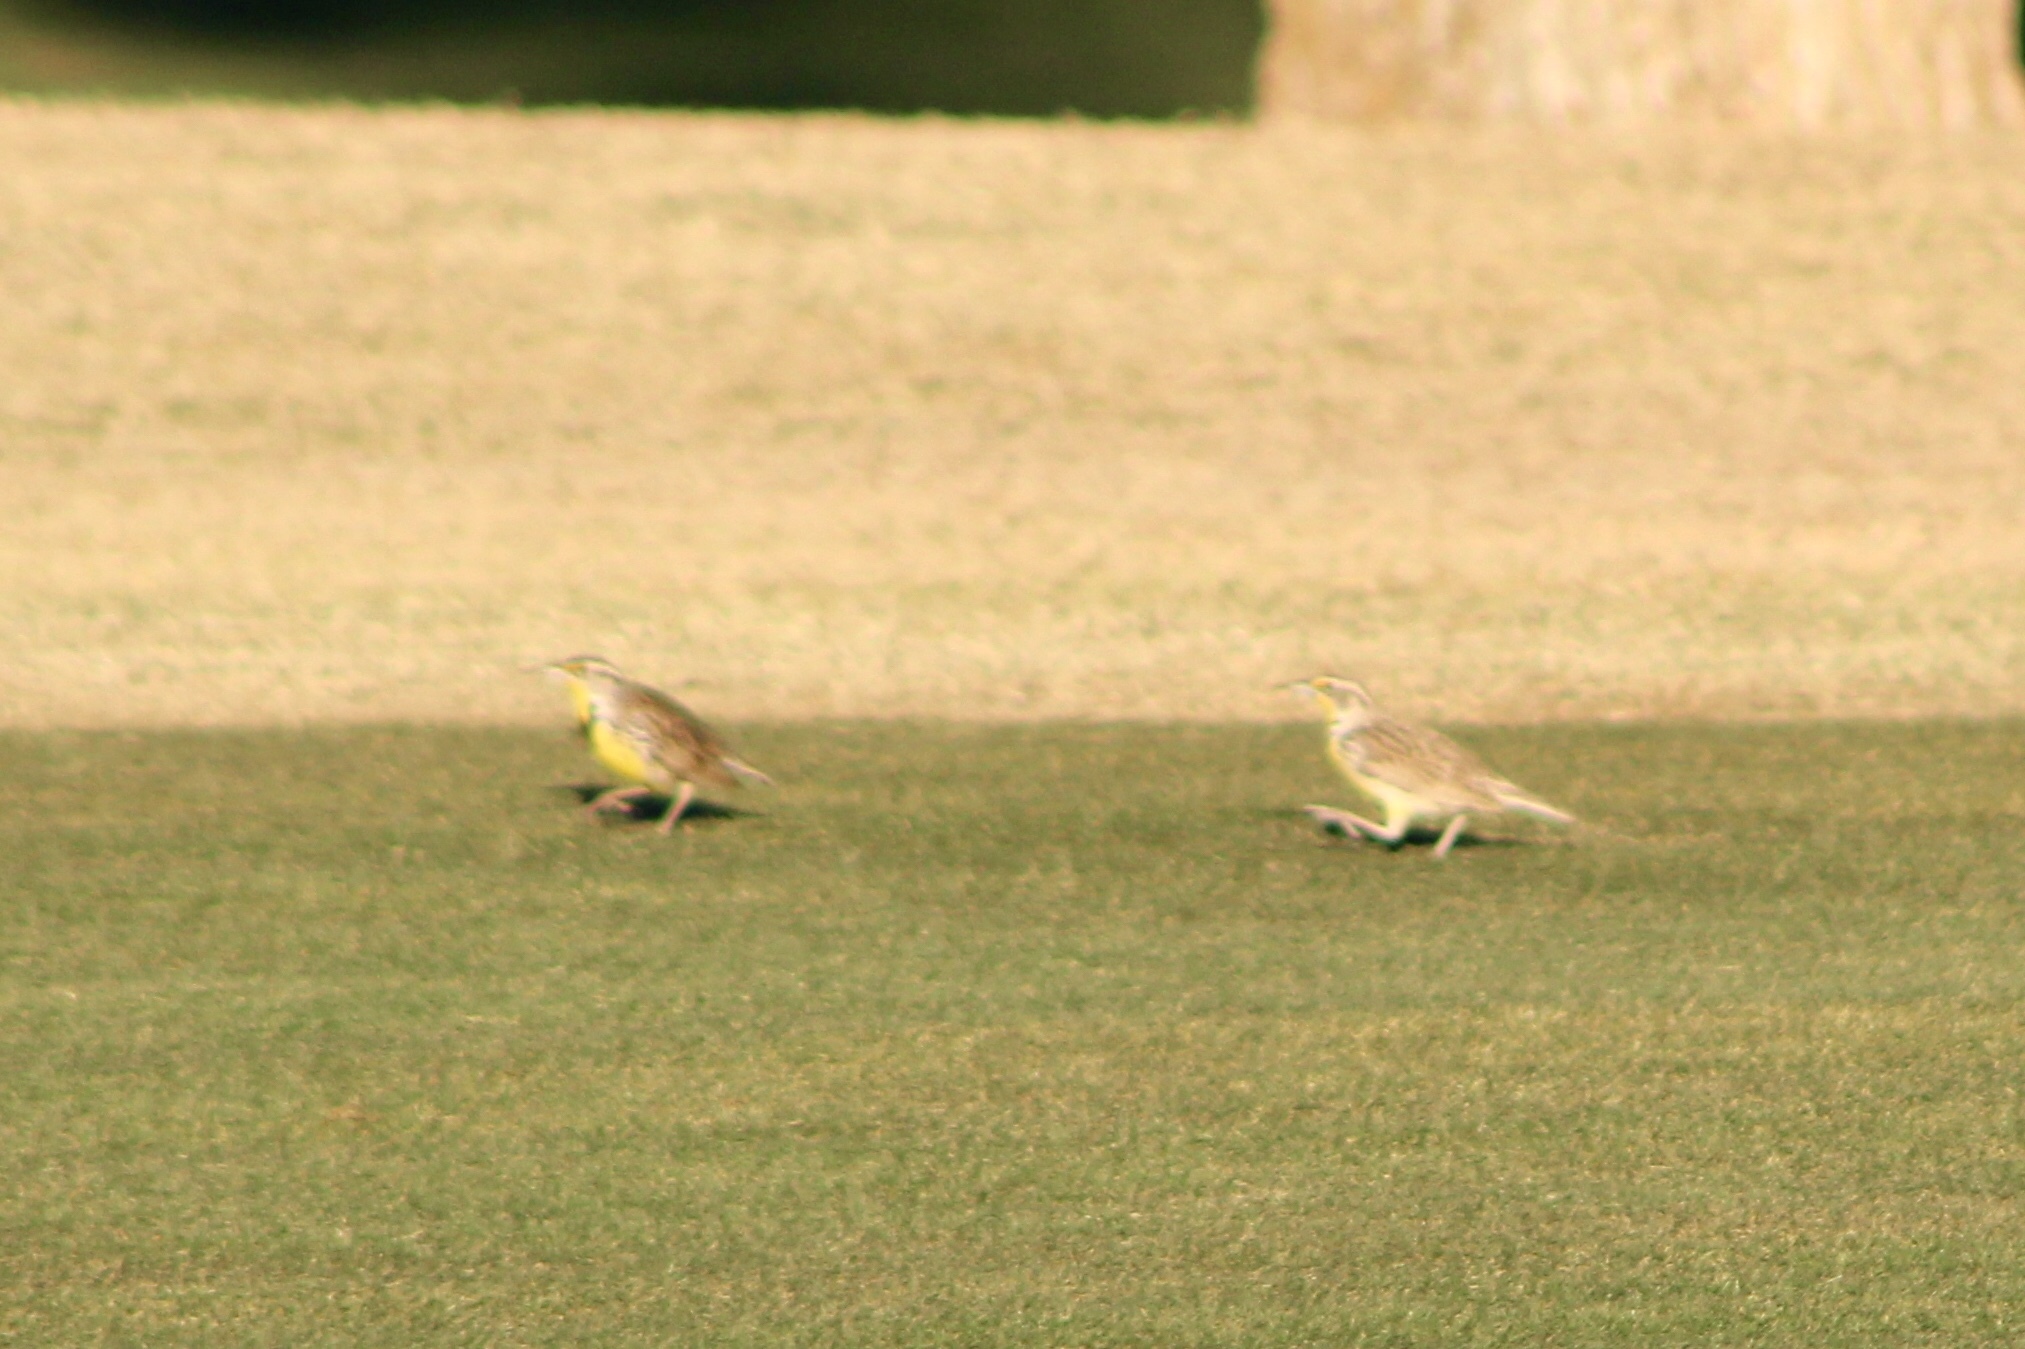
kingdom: Animalia
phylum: Chordata
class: Aves
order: Passeriformes
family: Icteridae
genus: Sturnella
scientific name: Sturnella neglecta
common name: Western meadowlark
